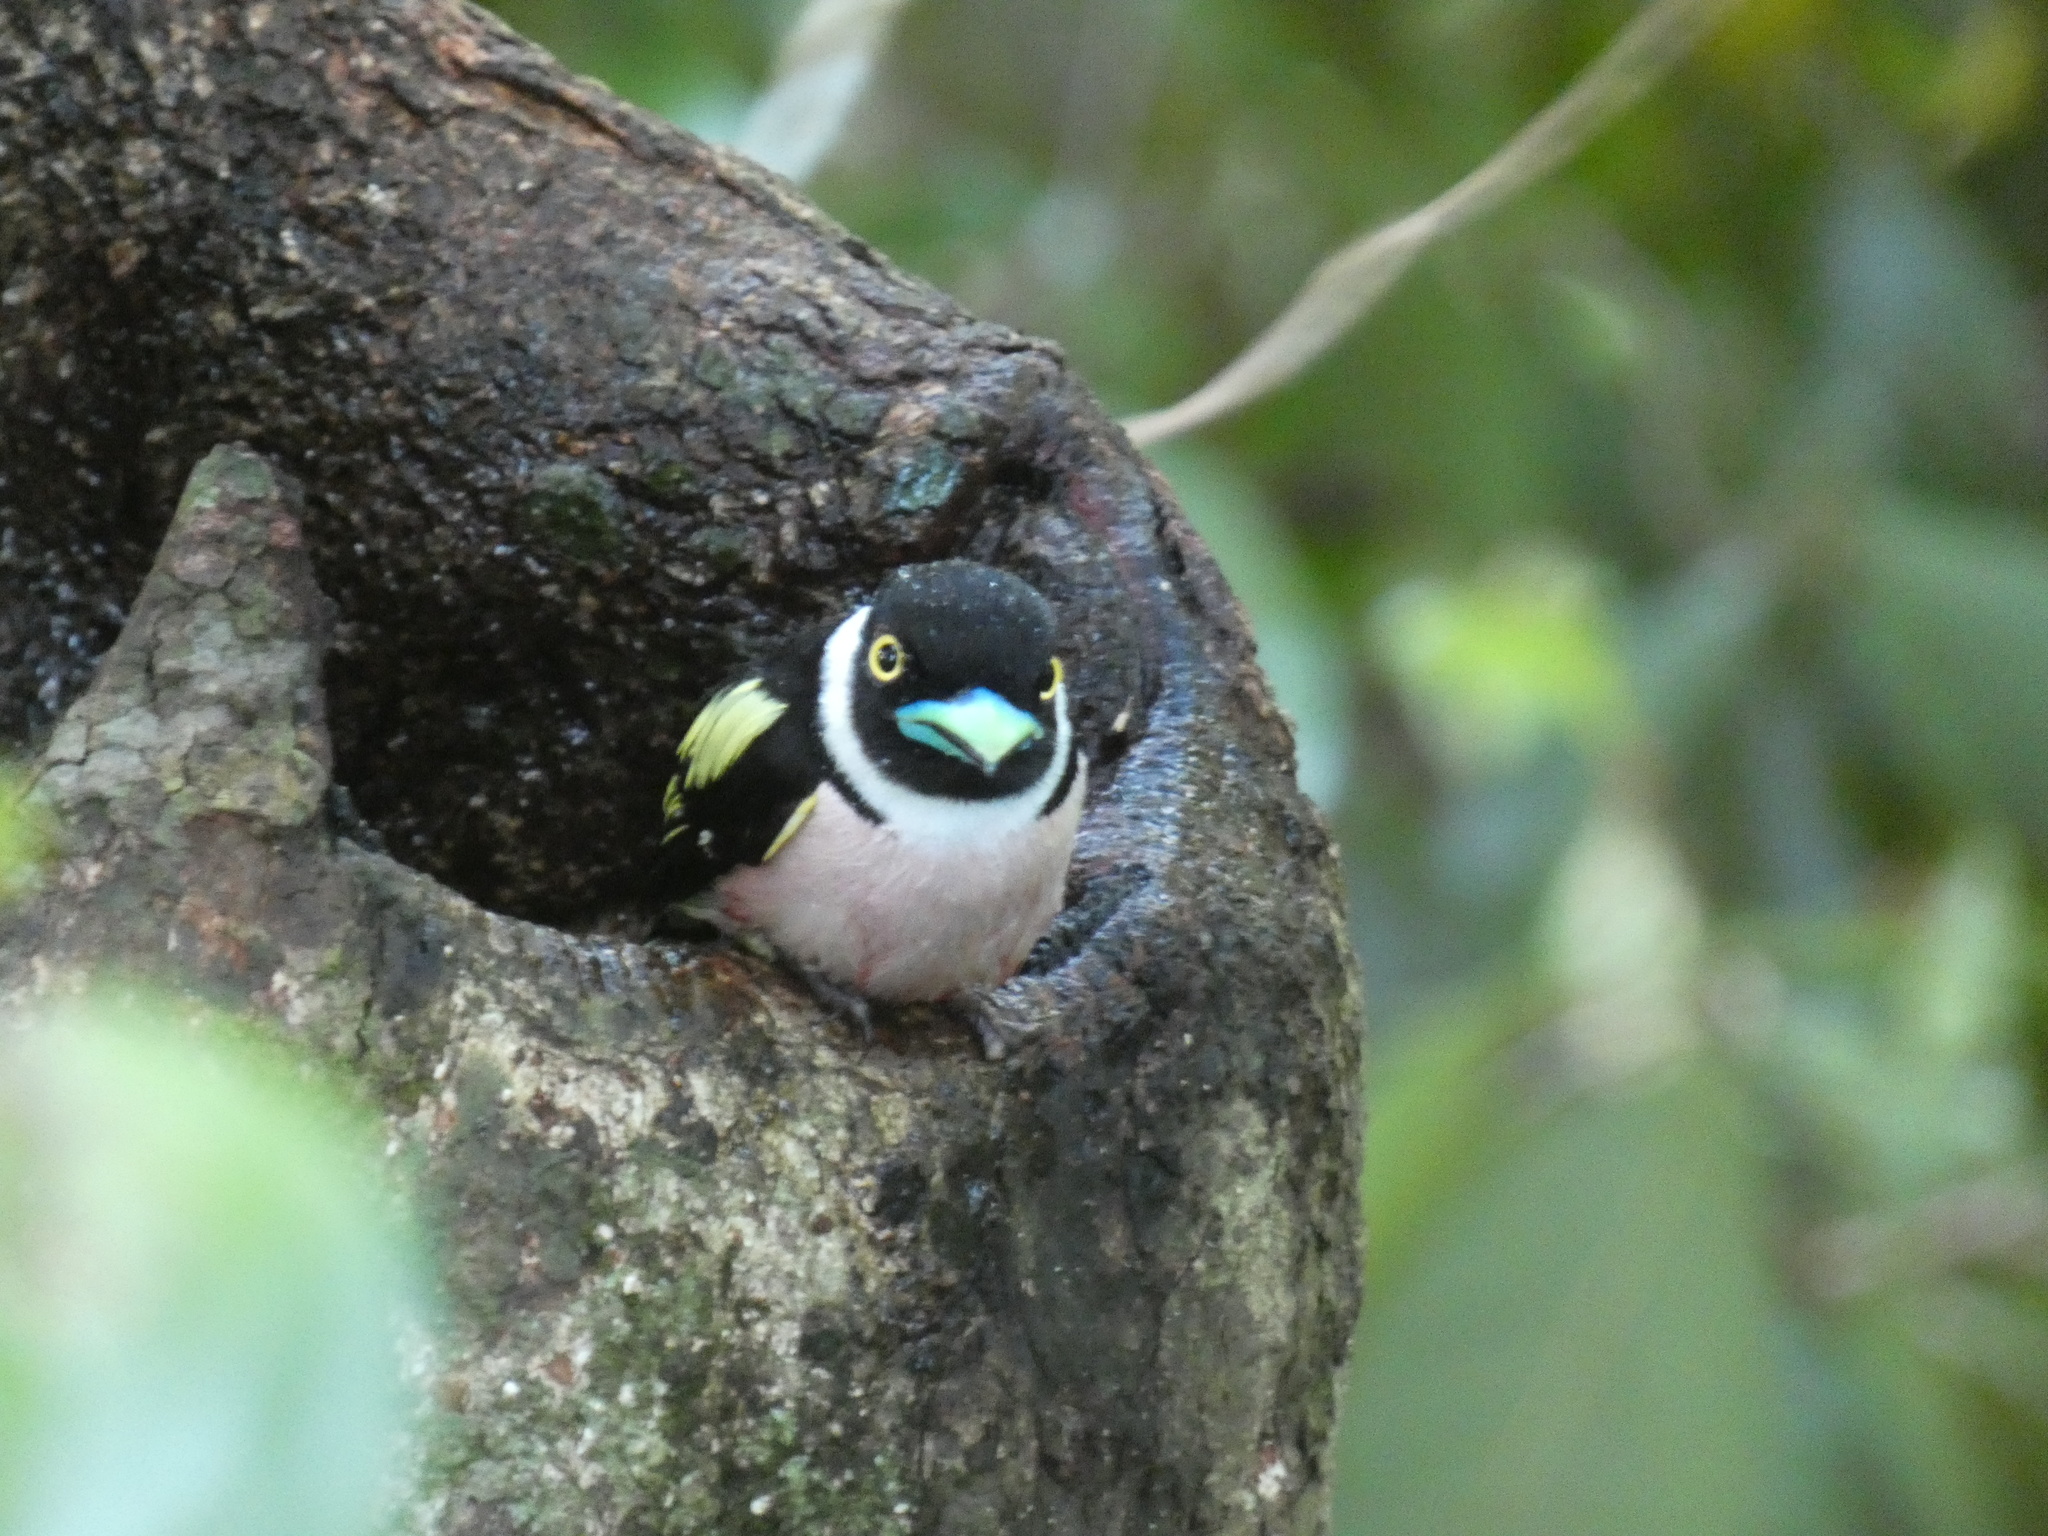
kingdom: Animalia
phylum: Chordata
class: Aves
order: Passeriformes
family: Eurylaimidae
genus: Eurylaimus
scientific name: Eurylaimus ochromalus
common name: Black-and-yellow broadbill
